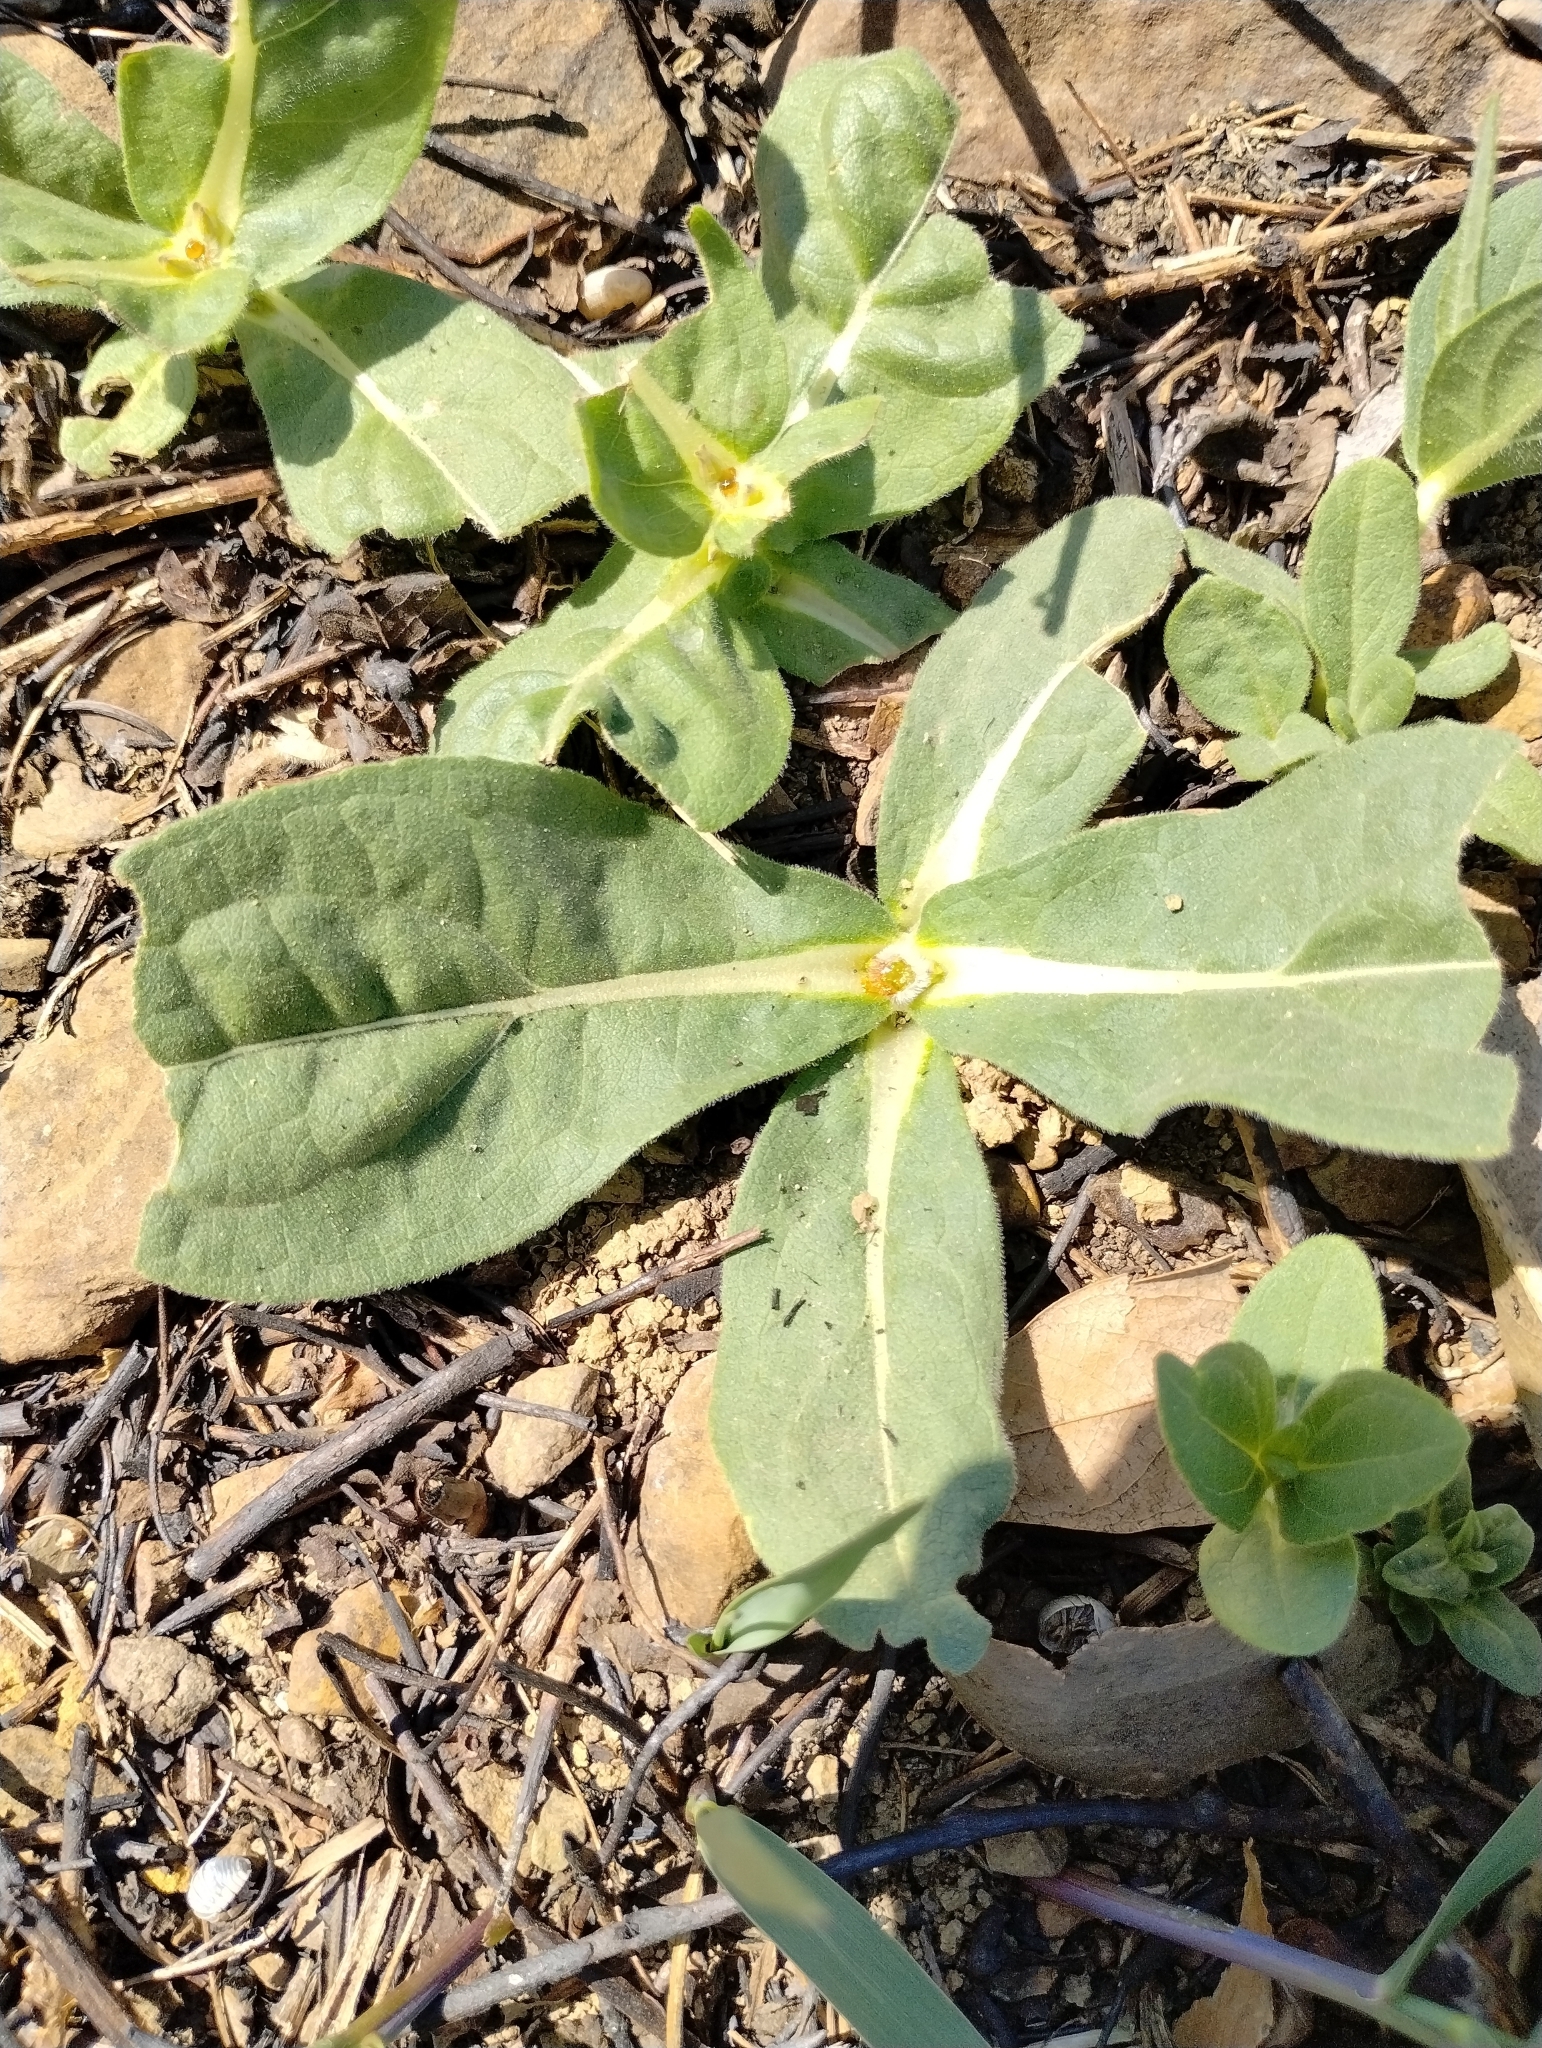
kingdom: Plantae
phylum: Tracheophyta
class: Magnoliopsida
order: Asterales
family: Asteraceae
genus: Helianthus
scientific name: Helianthus mollis
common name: Ashy sunflower
